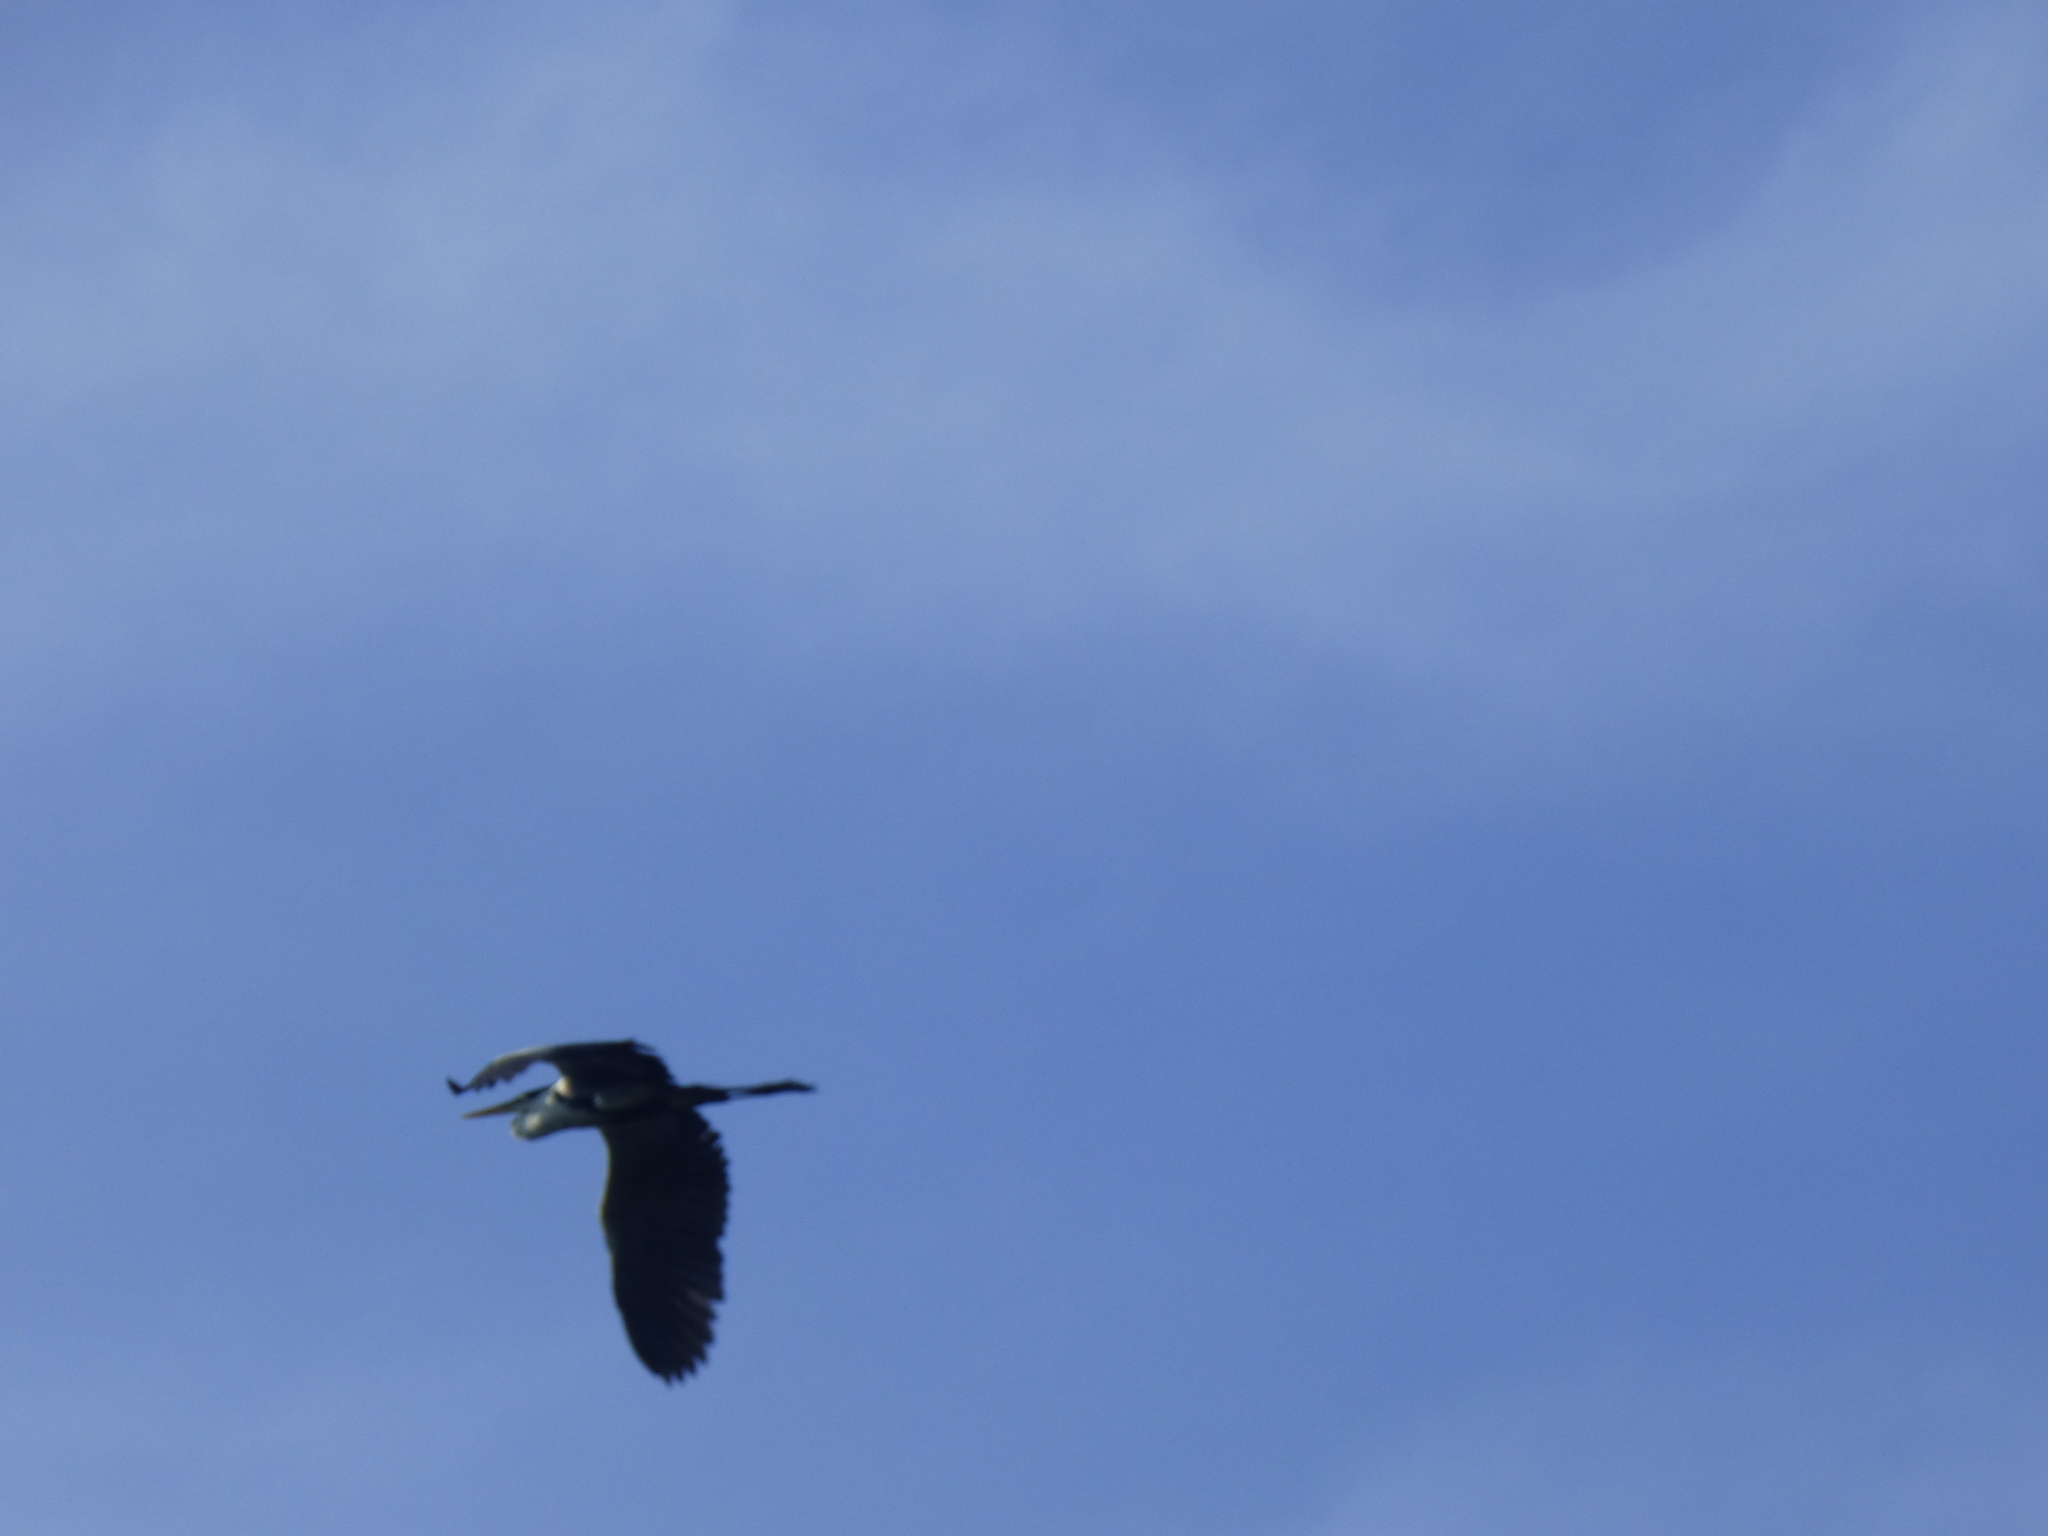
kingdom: Animalia
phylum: Chordata
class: Aves
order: Pelecaniformes
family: Ardeidae
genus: Ardea
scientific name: Ardea cocoi
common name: Cocoi heron
